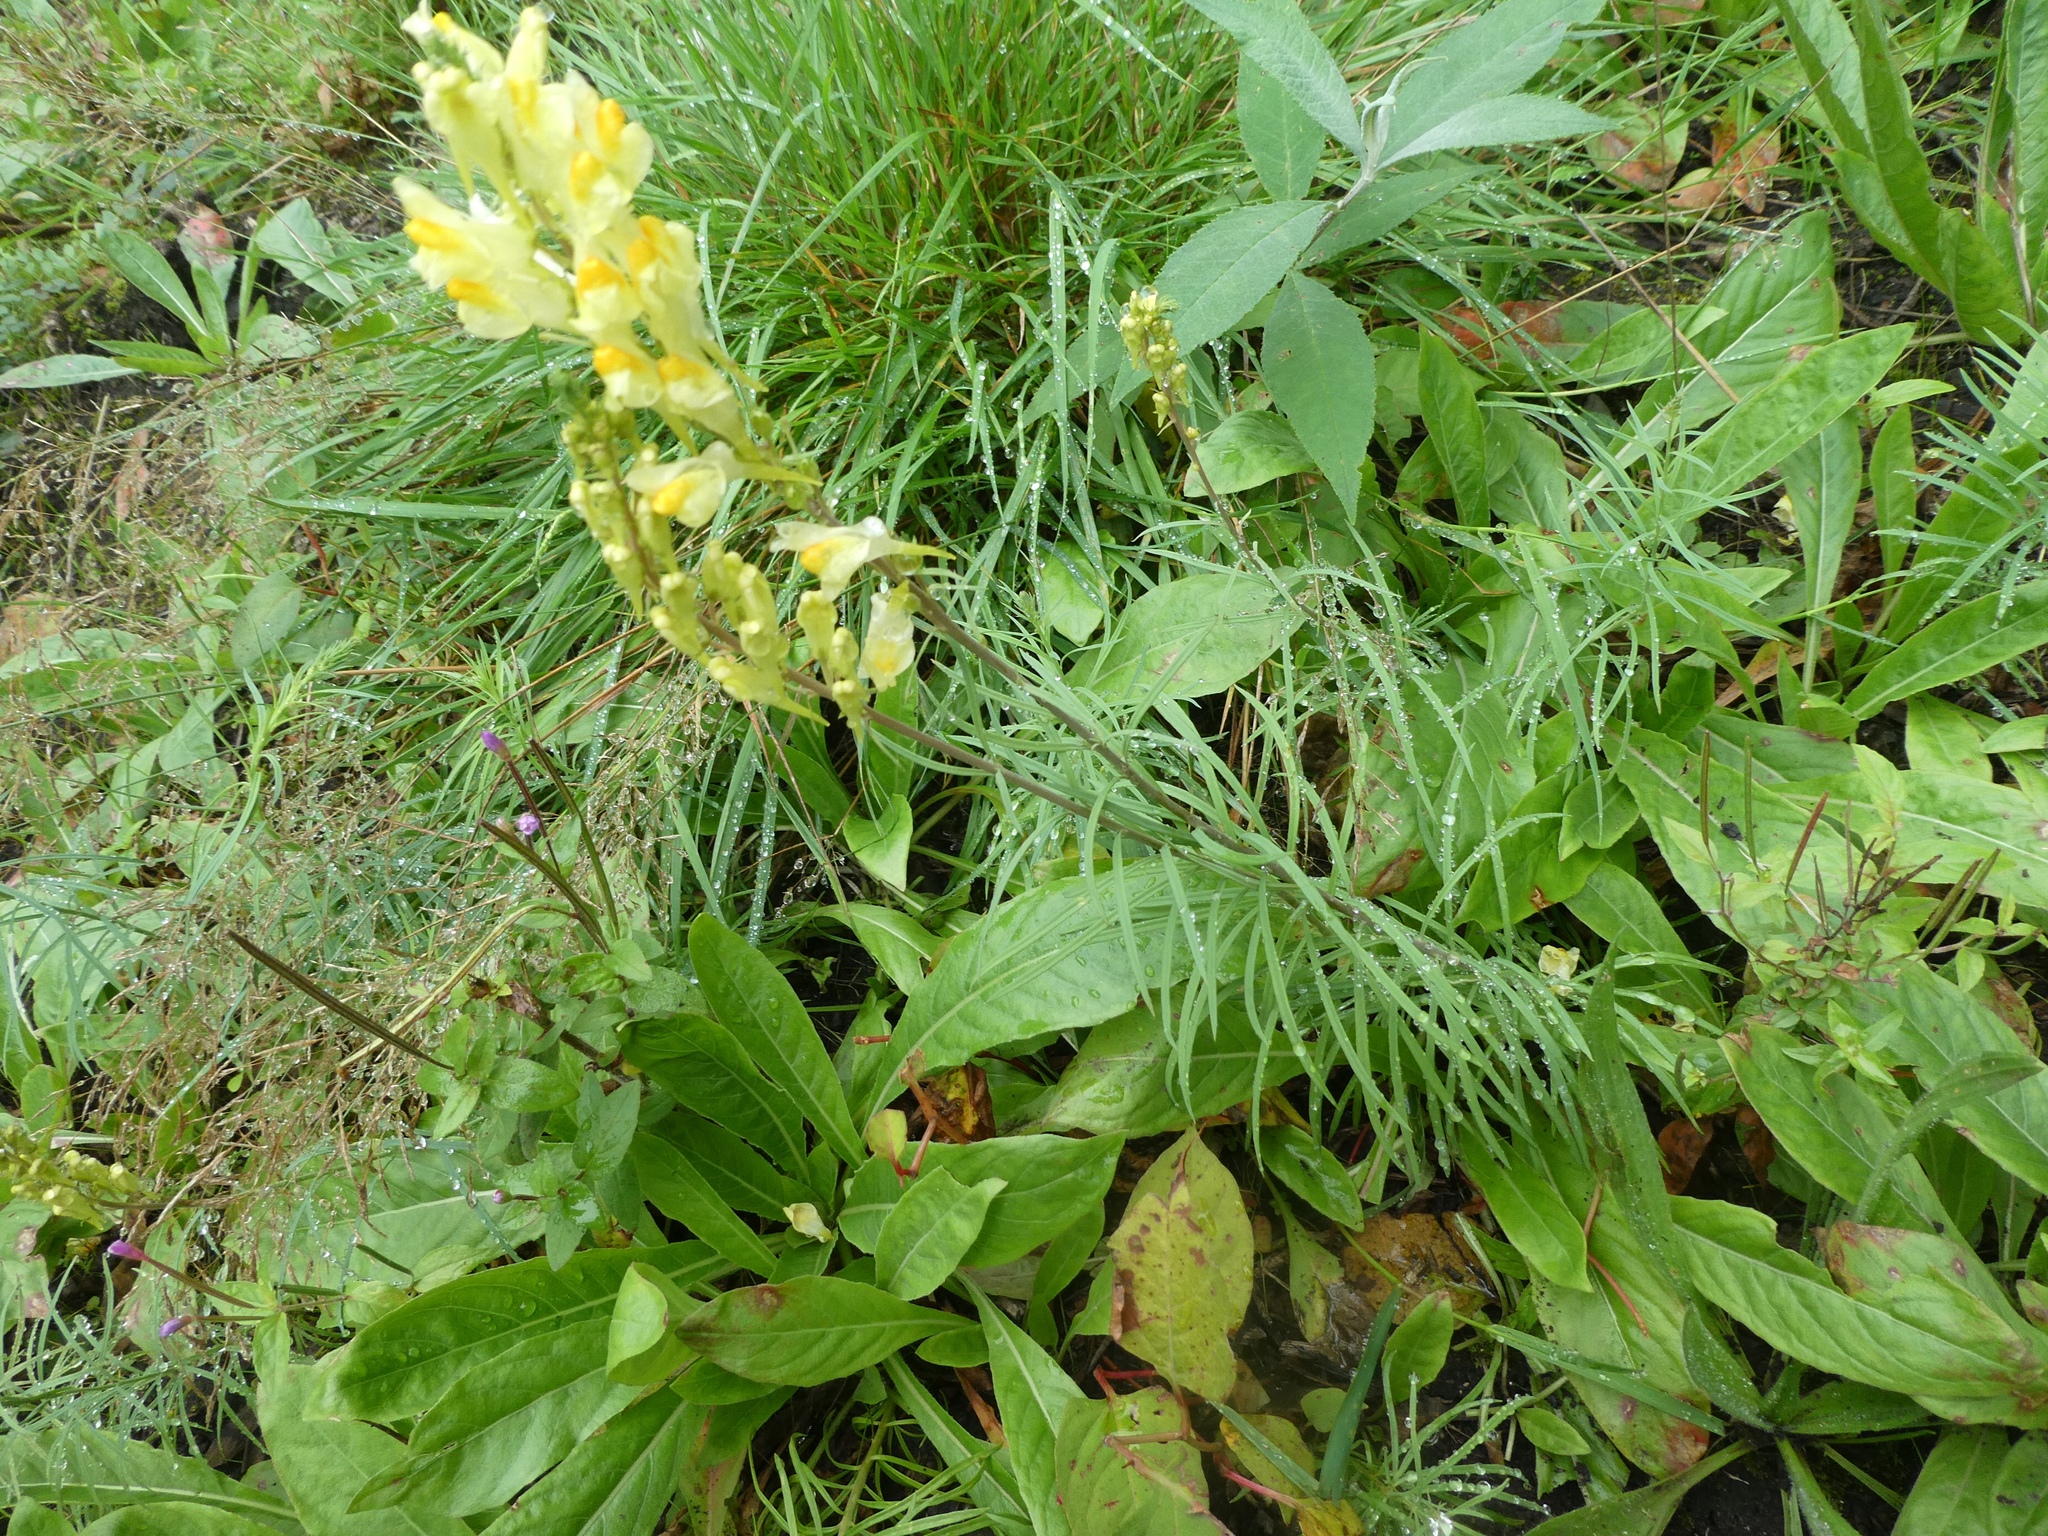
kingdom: Plantae
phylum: Tracheophyta
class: Magnoliopsida
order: Lamiales
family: Plantaginaceae
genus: Linaria
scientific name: Linaria vulgaris
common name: Butter and eggs
